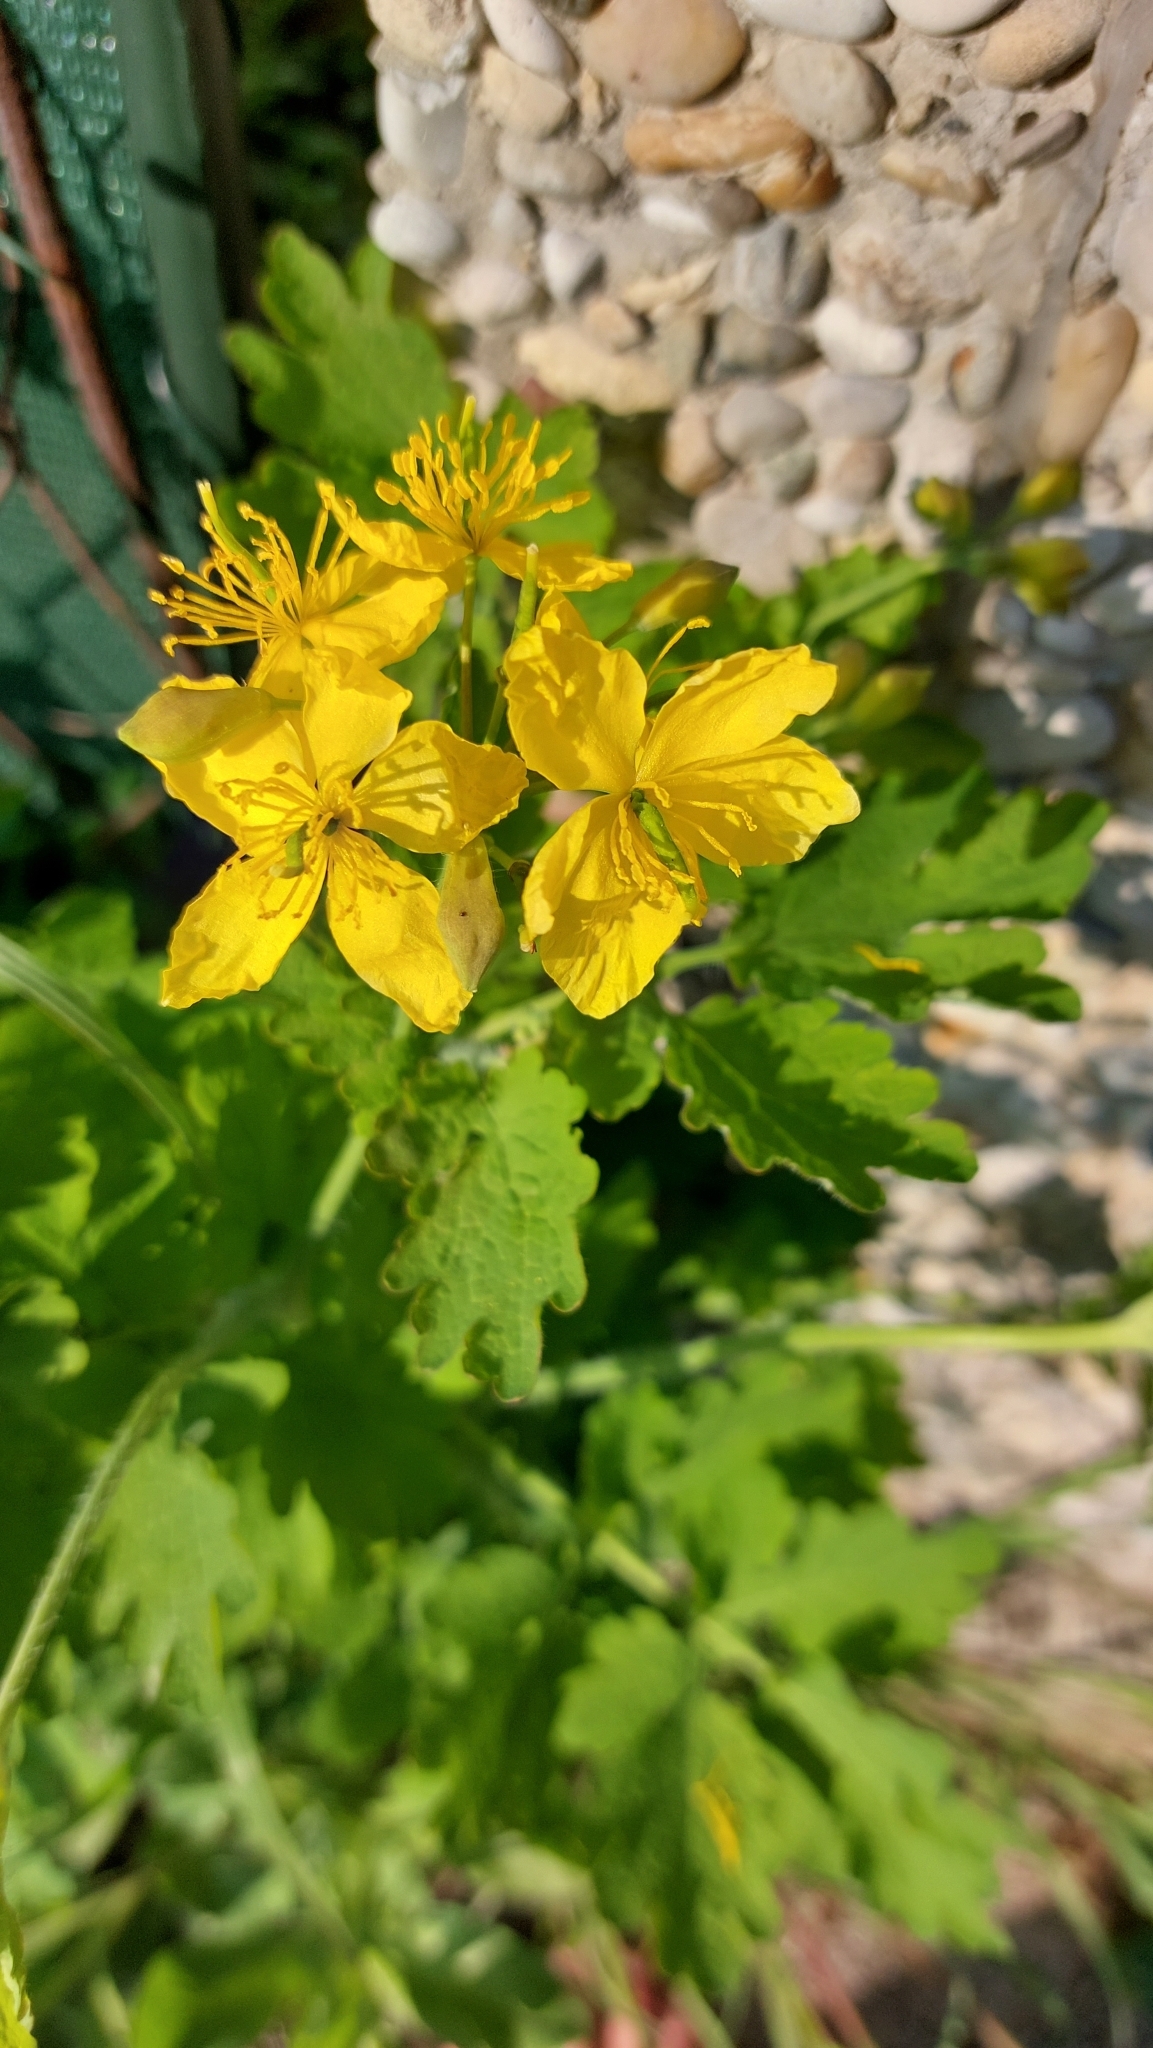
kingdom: Plantae
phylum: Tracheophyta
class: Magnoliopsida
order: Ranunculales
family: Papaveraceae
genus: Chelidonium
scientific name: Chelidonium majus
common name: Greater celandine
